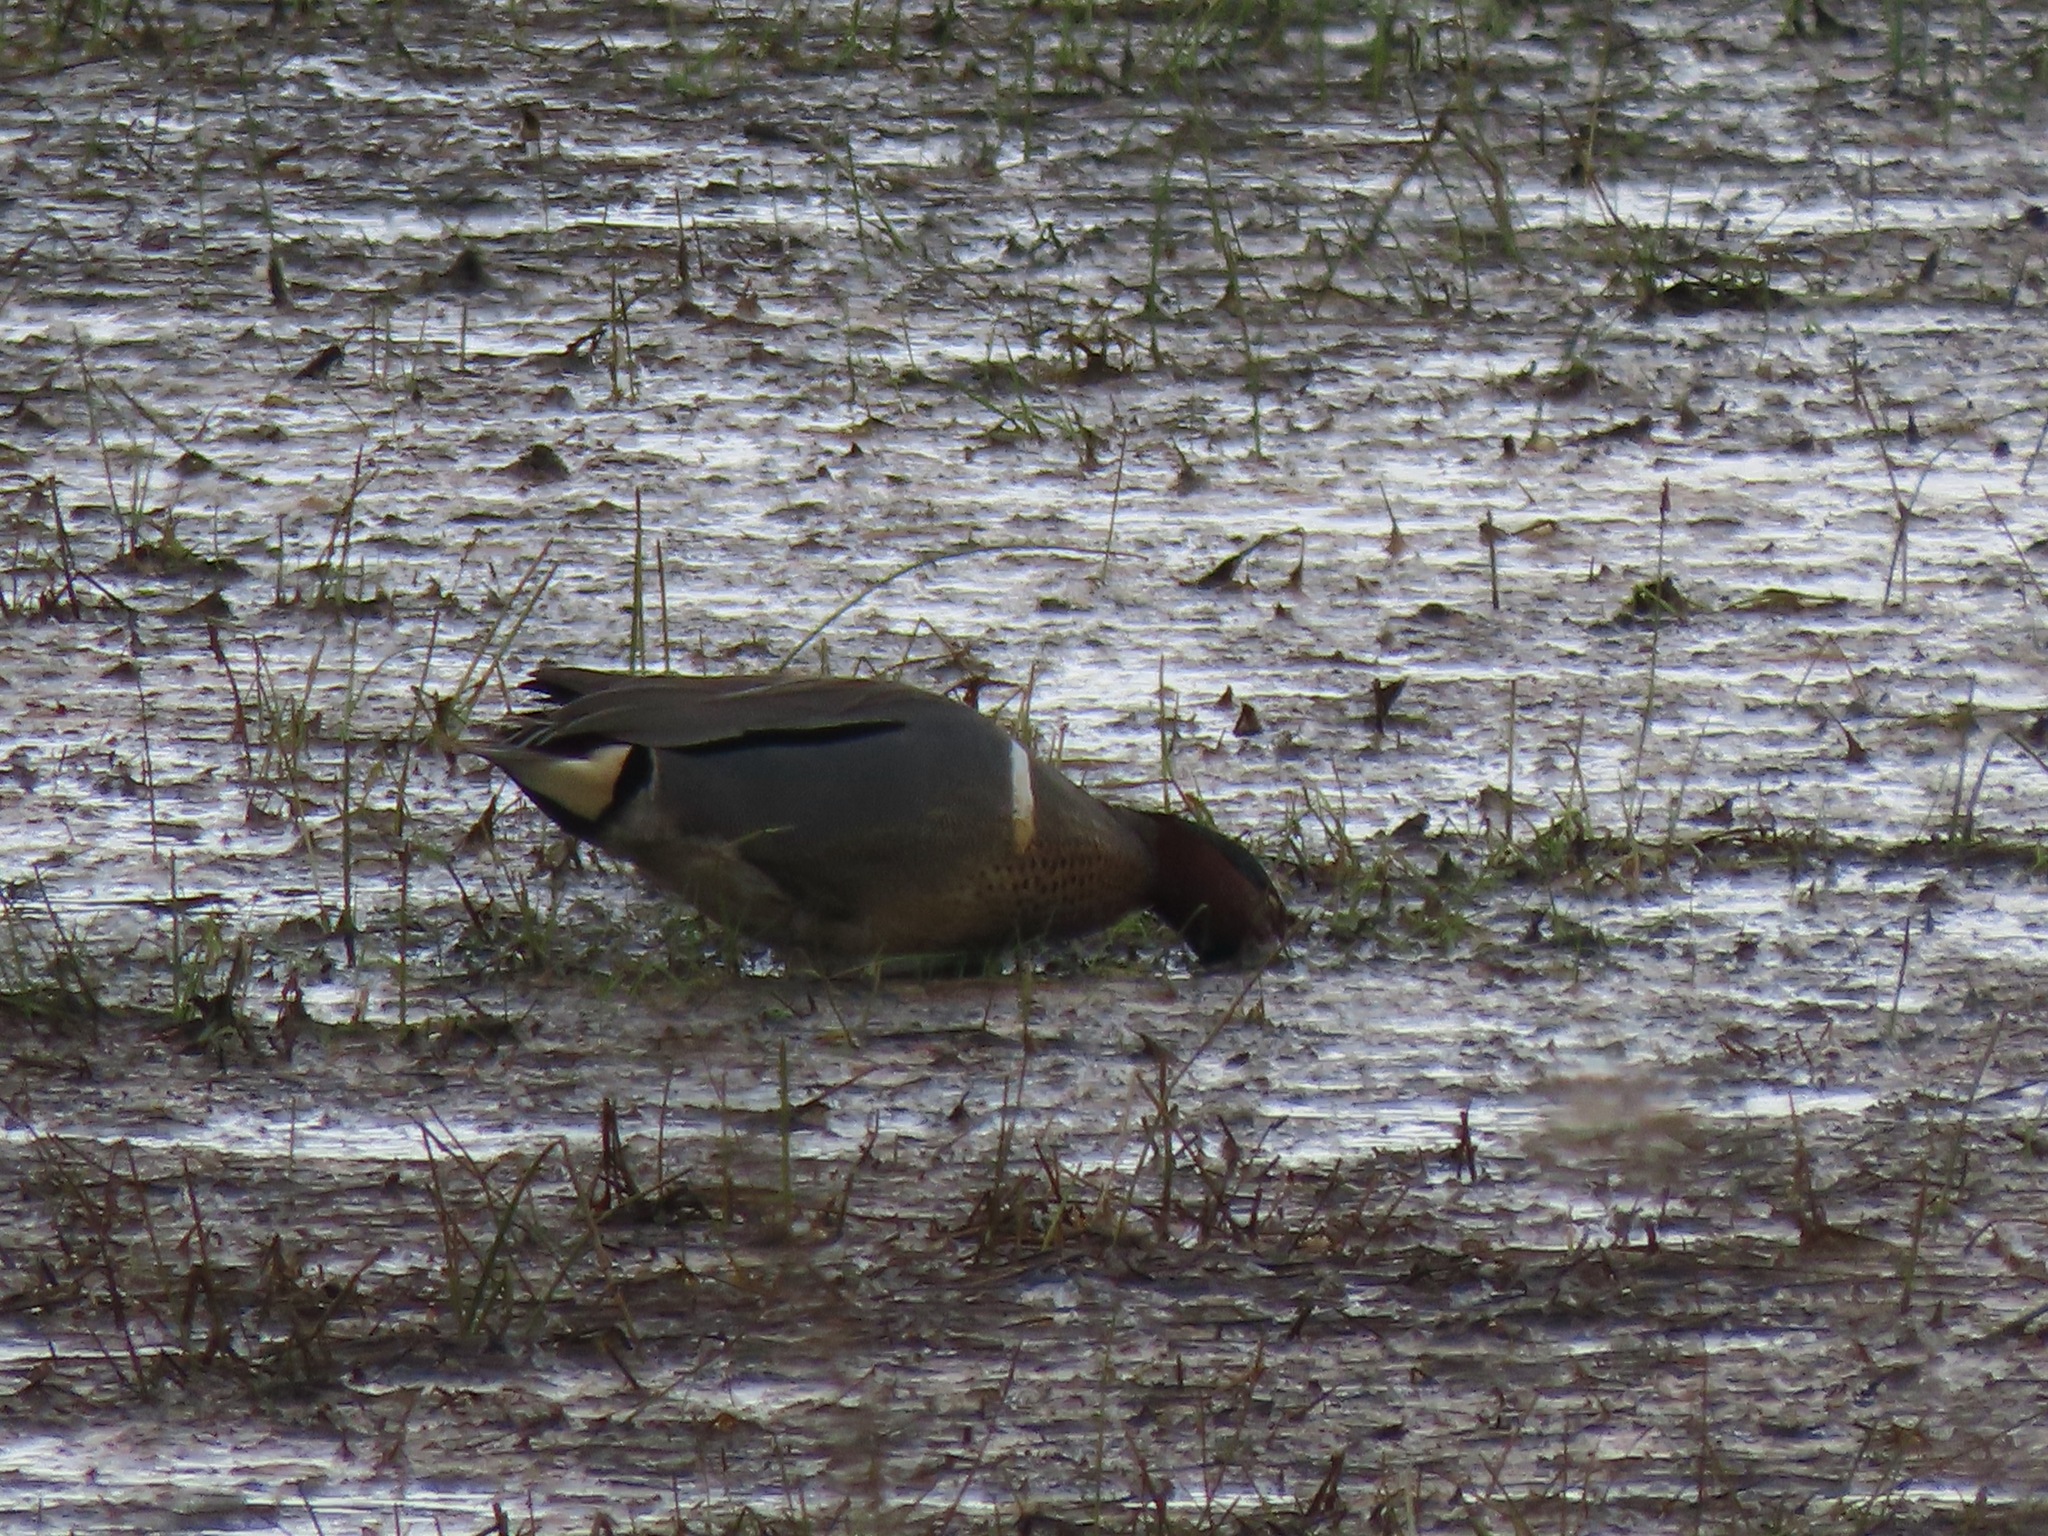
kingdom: Animalia
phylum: Chordata
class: Aves
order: Anseriformes
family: Anatidae
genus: Anas
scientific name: Anas crecca
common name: Eurasian teal
